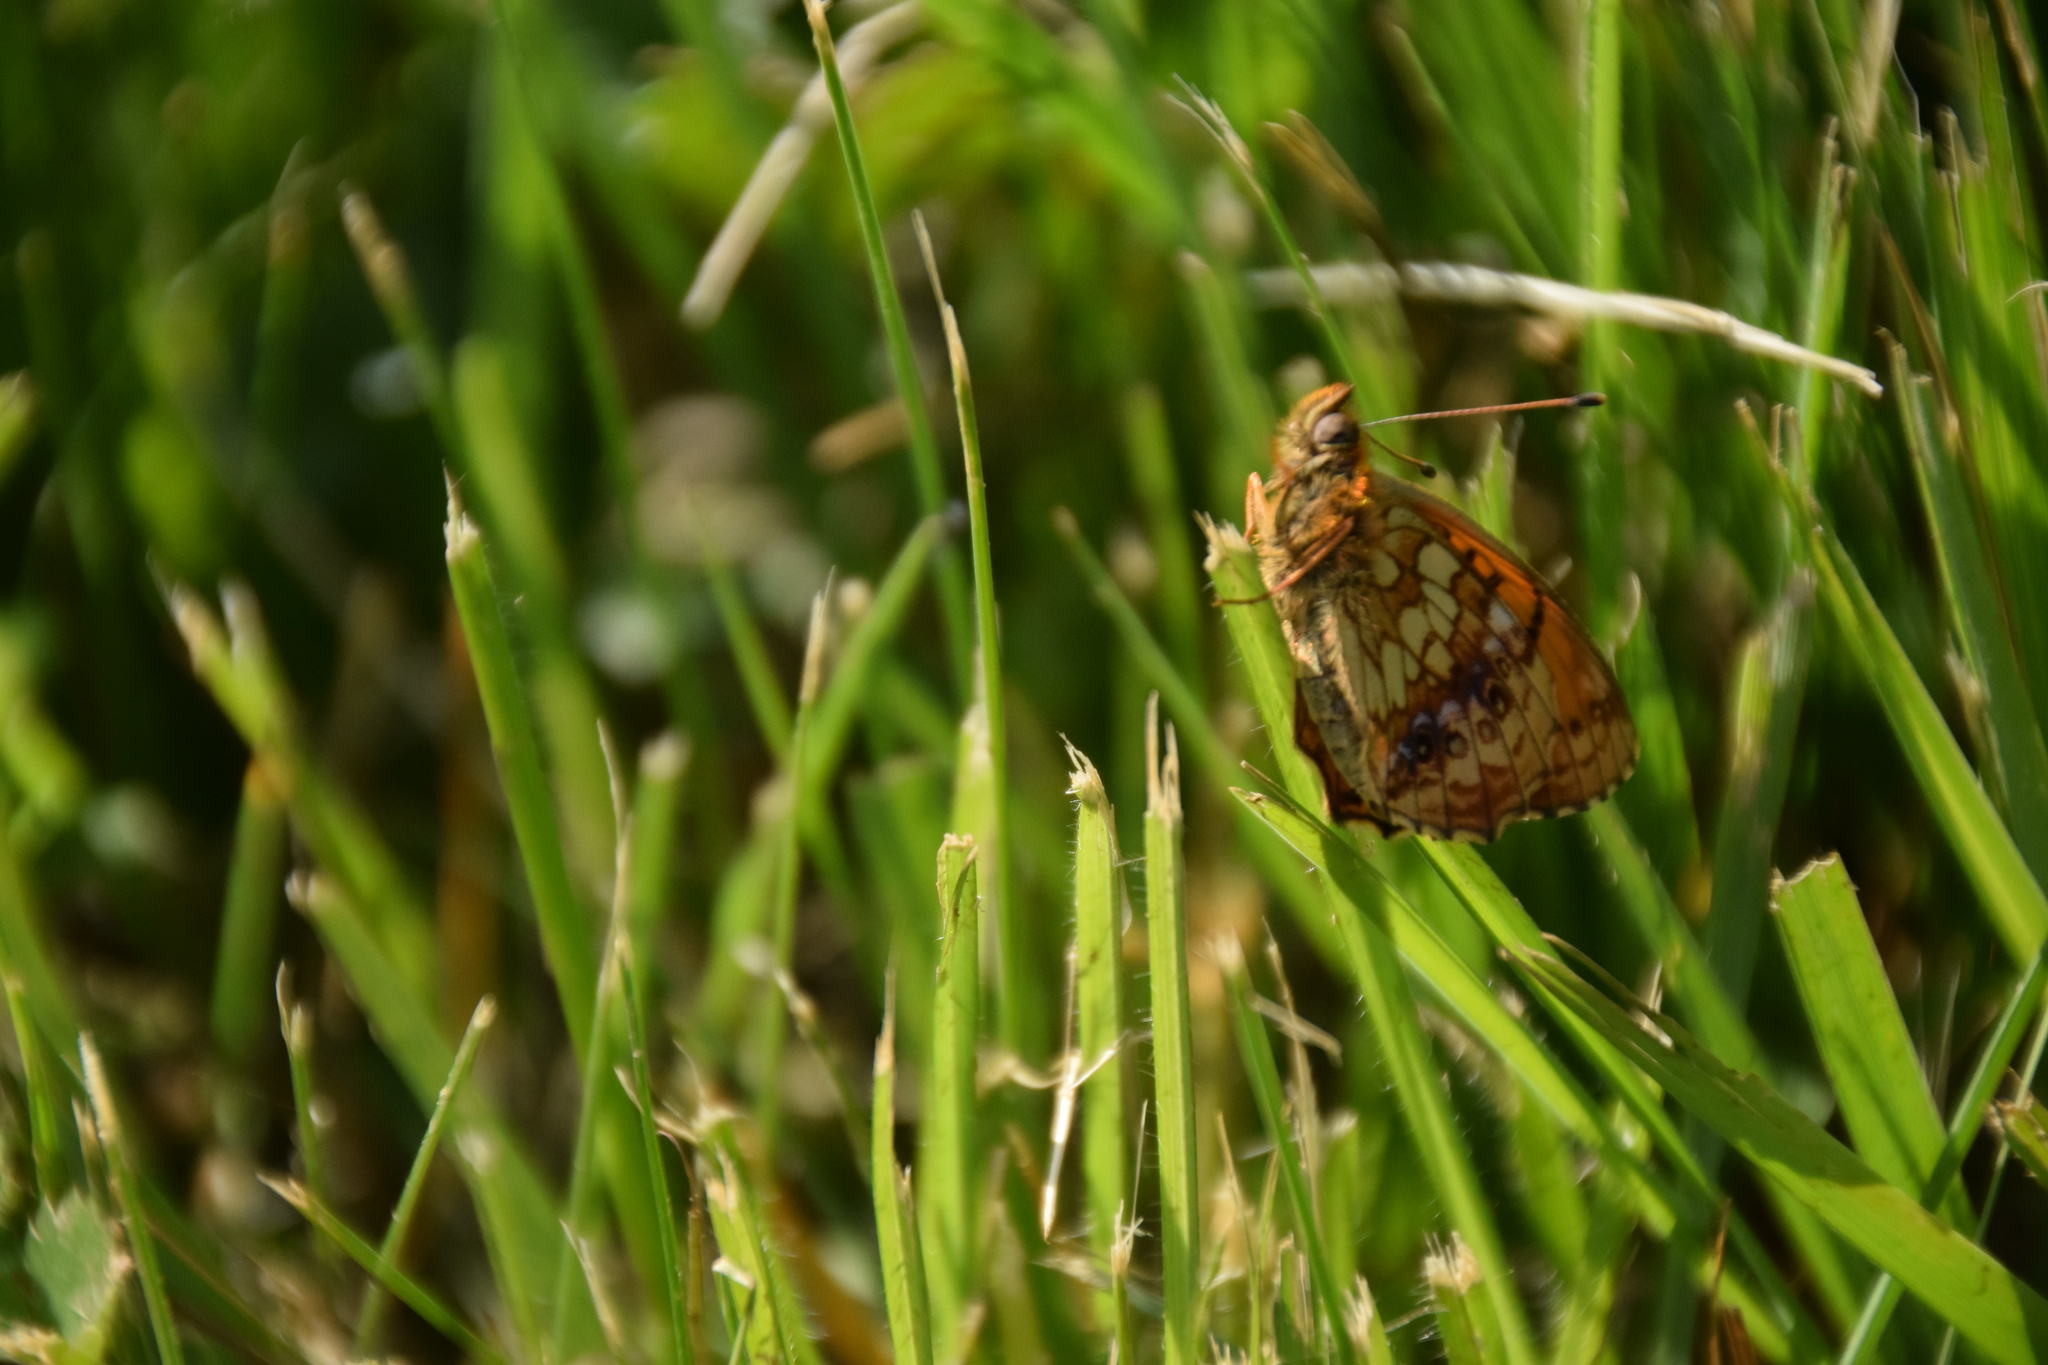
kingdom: Animalia
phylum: Arthropoda
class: Insecta
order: Lepidoptera
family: Nymphalidae
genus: Brenthis
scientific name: Brenthis ino
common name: Lesser marbled fritillary
